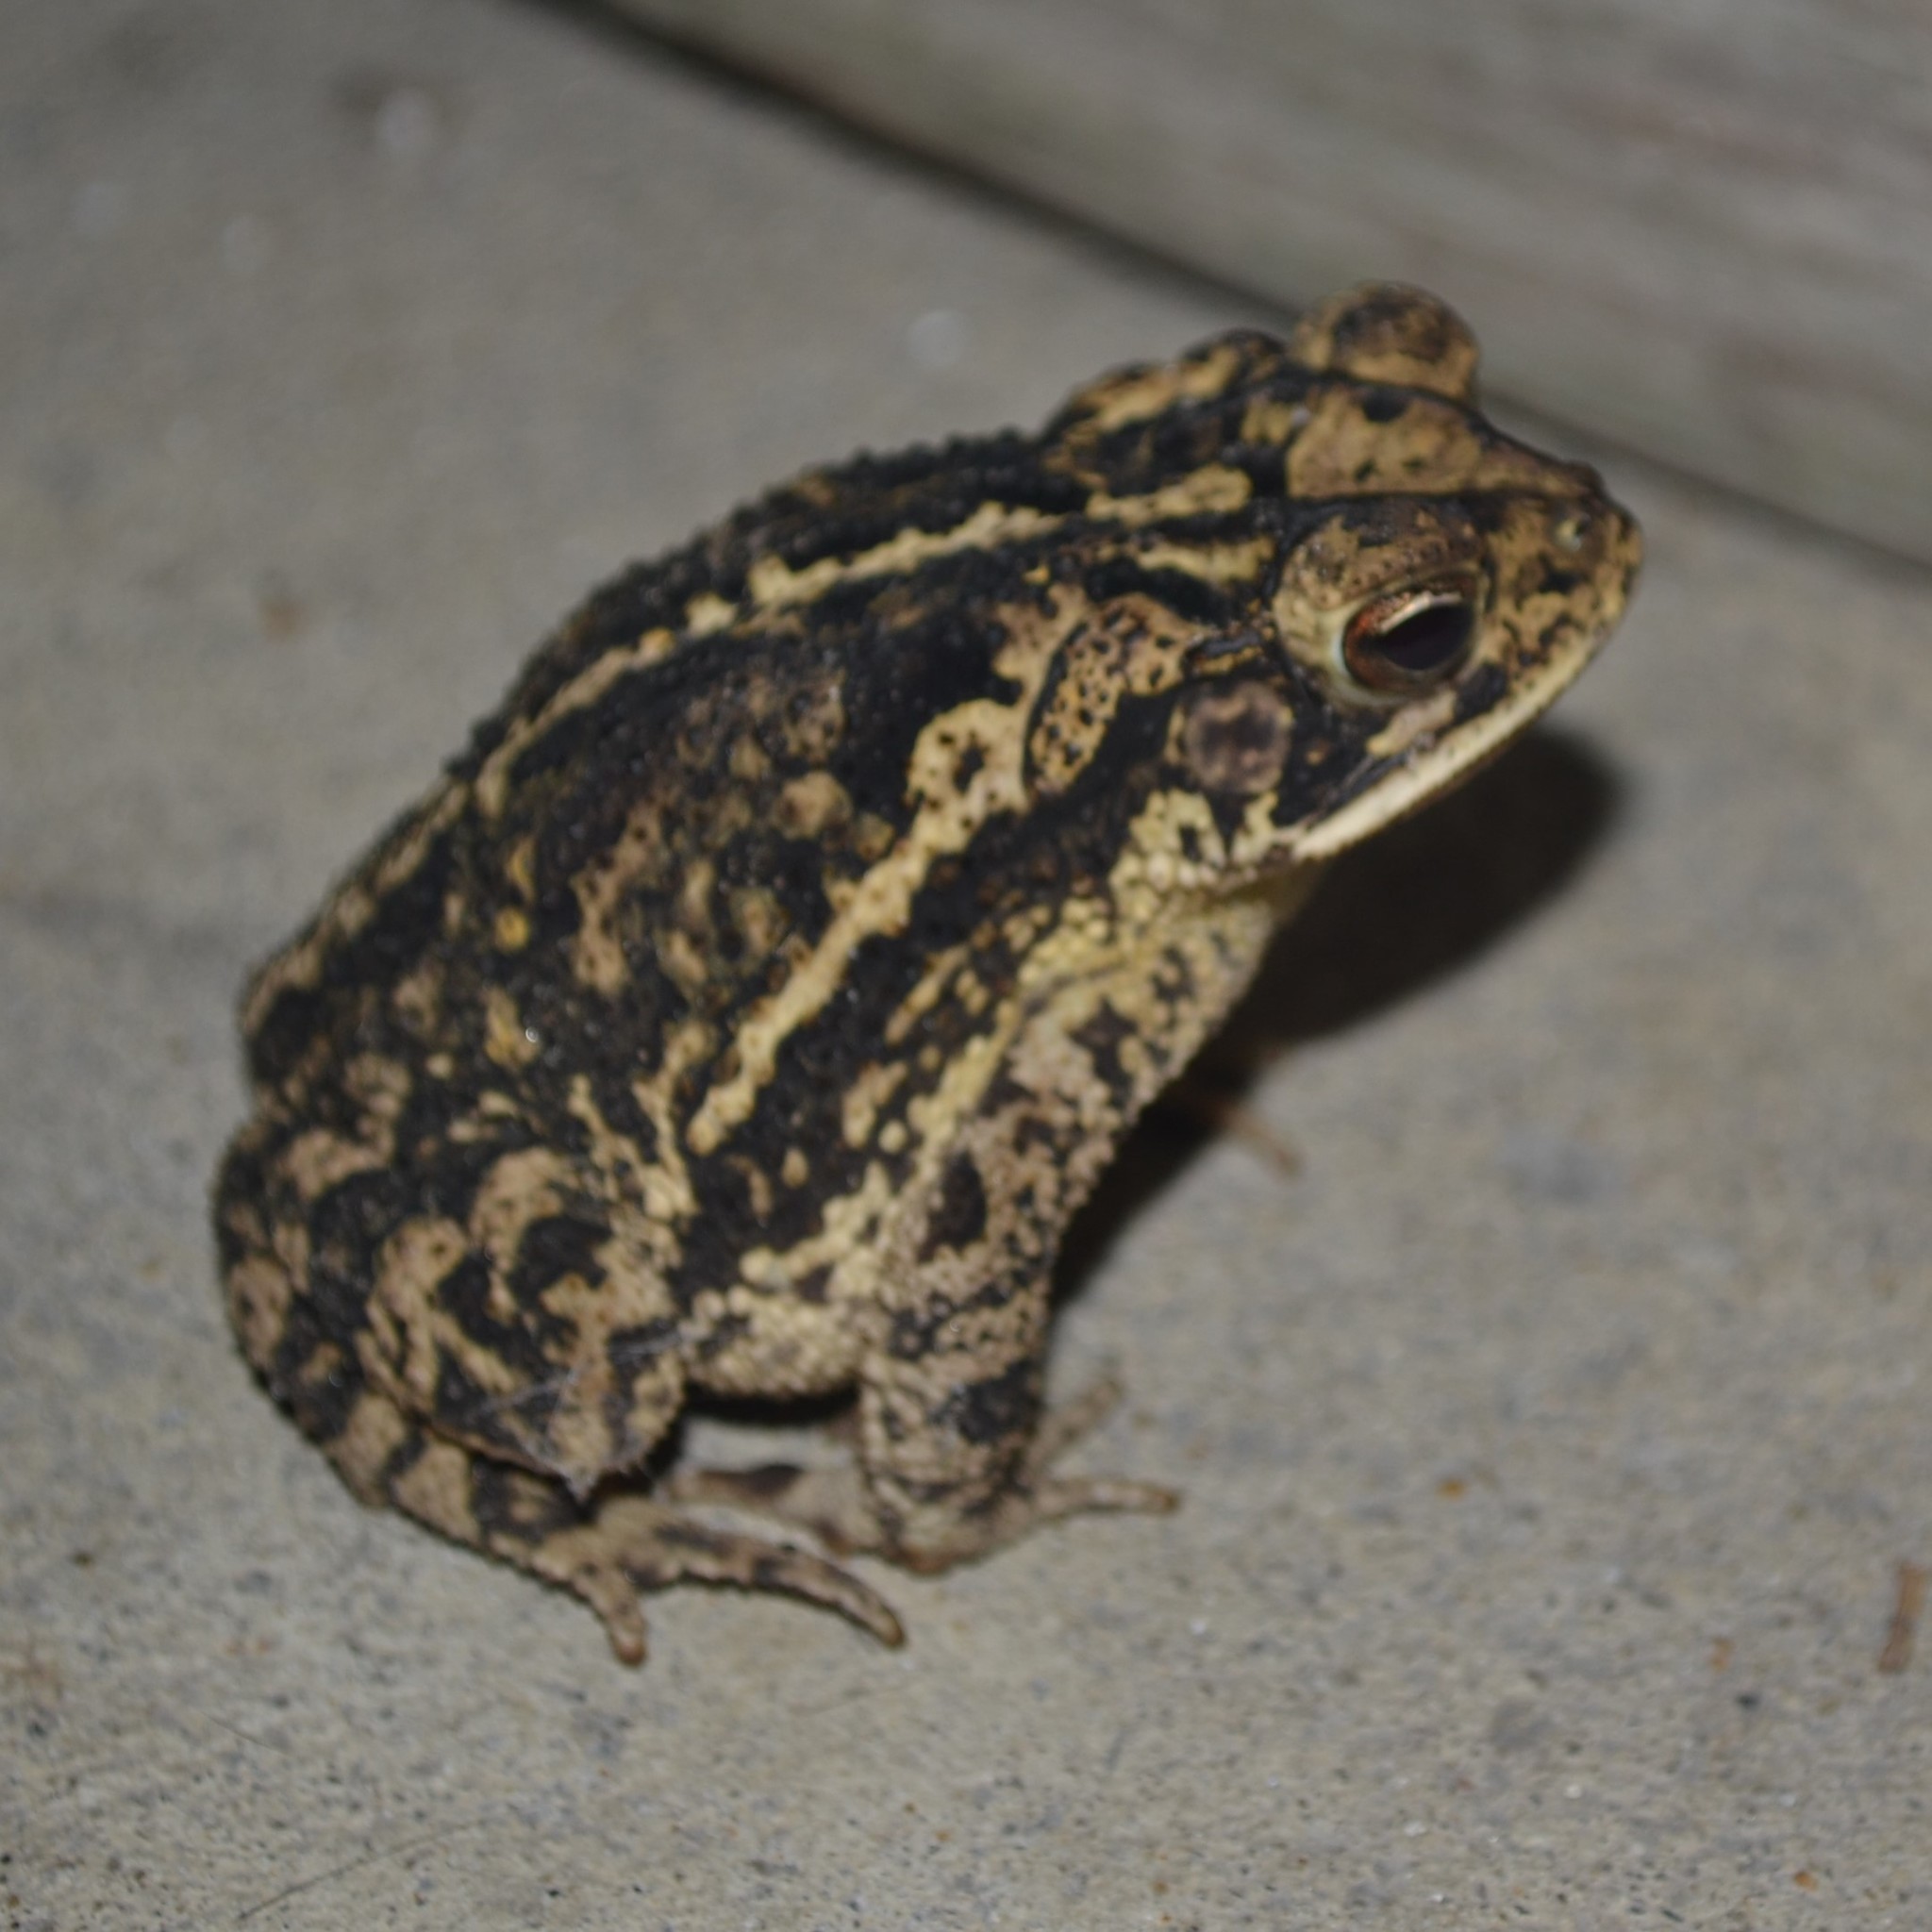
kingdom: Animalia
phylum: Chordata
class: Amphibia
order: Anura
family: Bufonidae
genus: Incilius
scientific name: Incilius nebulifer
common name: Gulf coast toad
